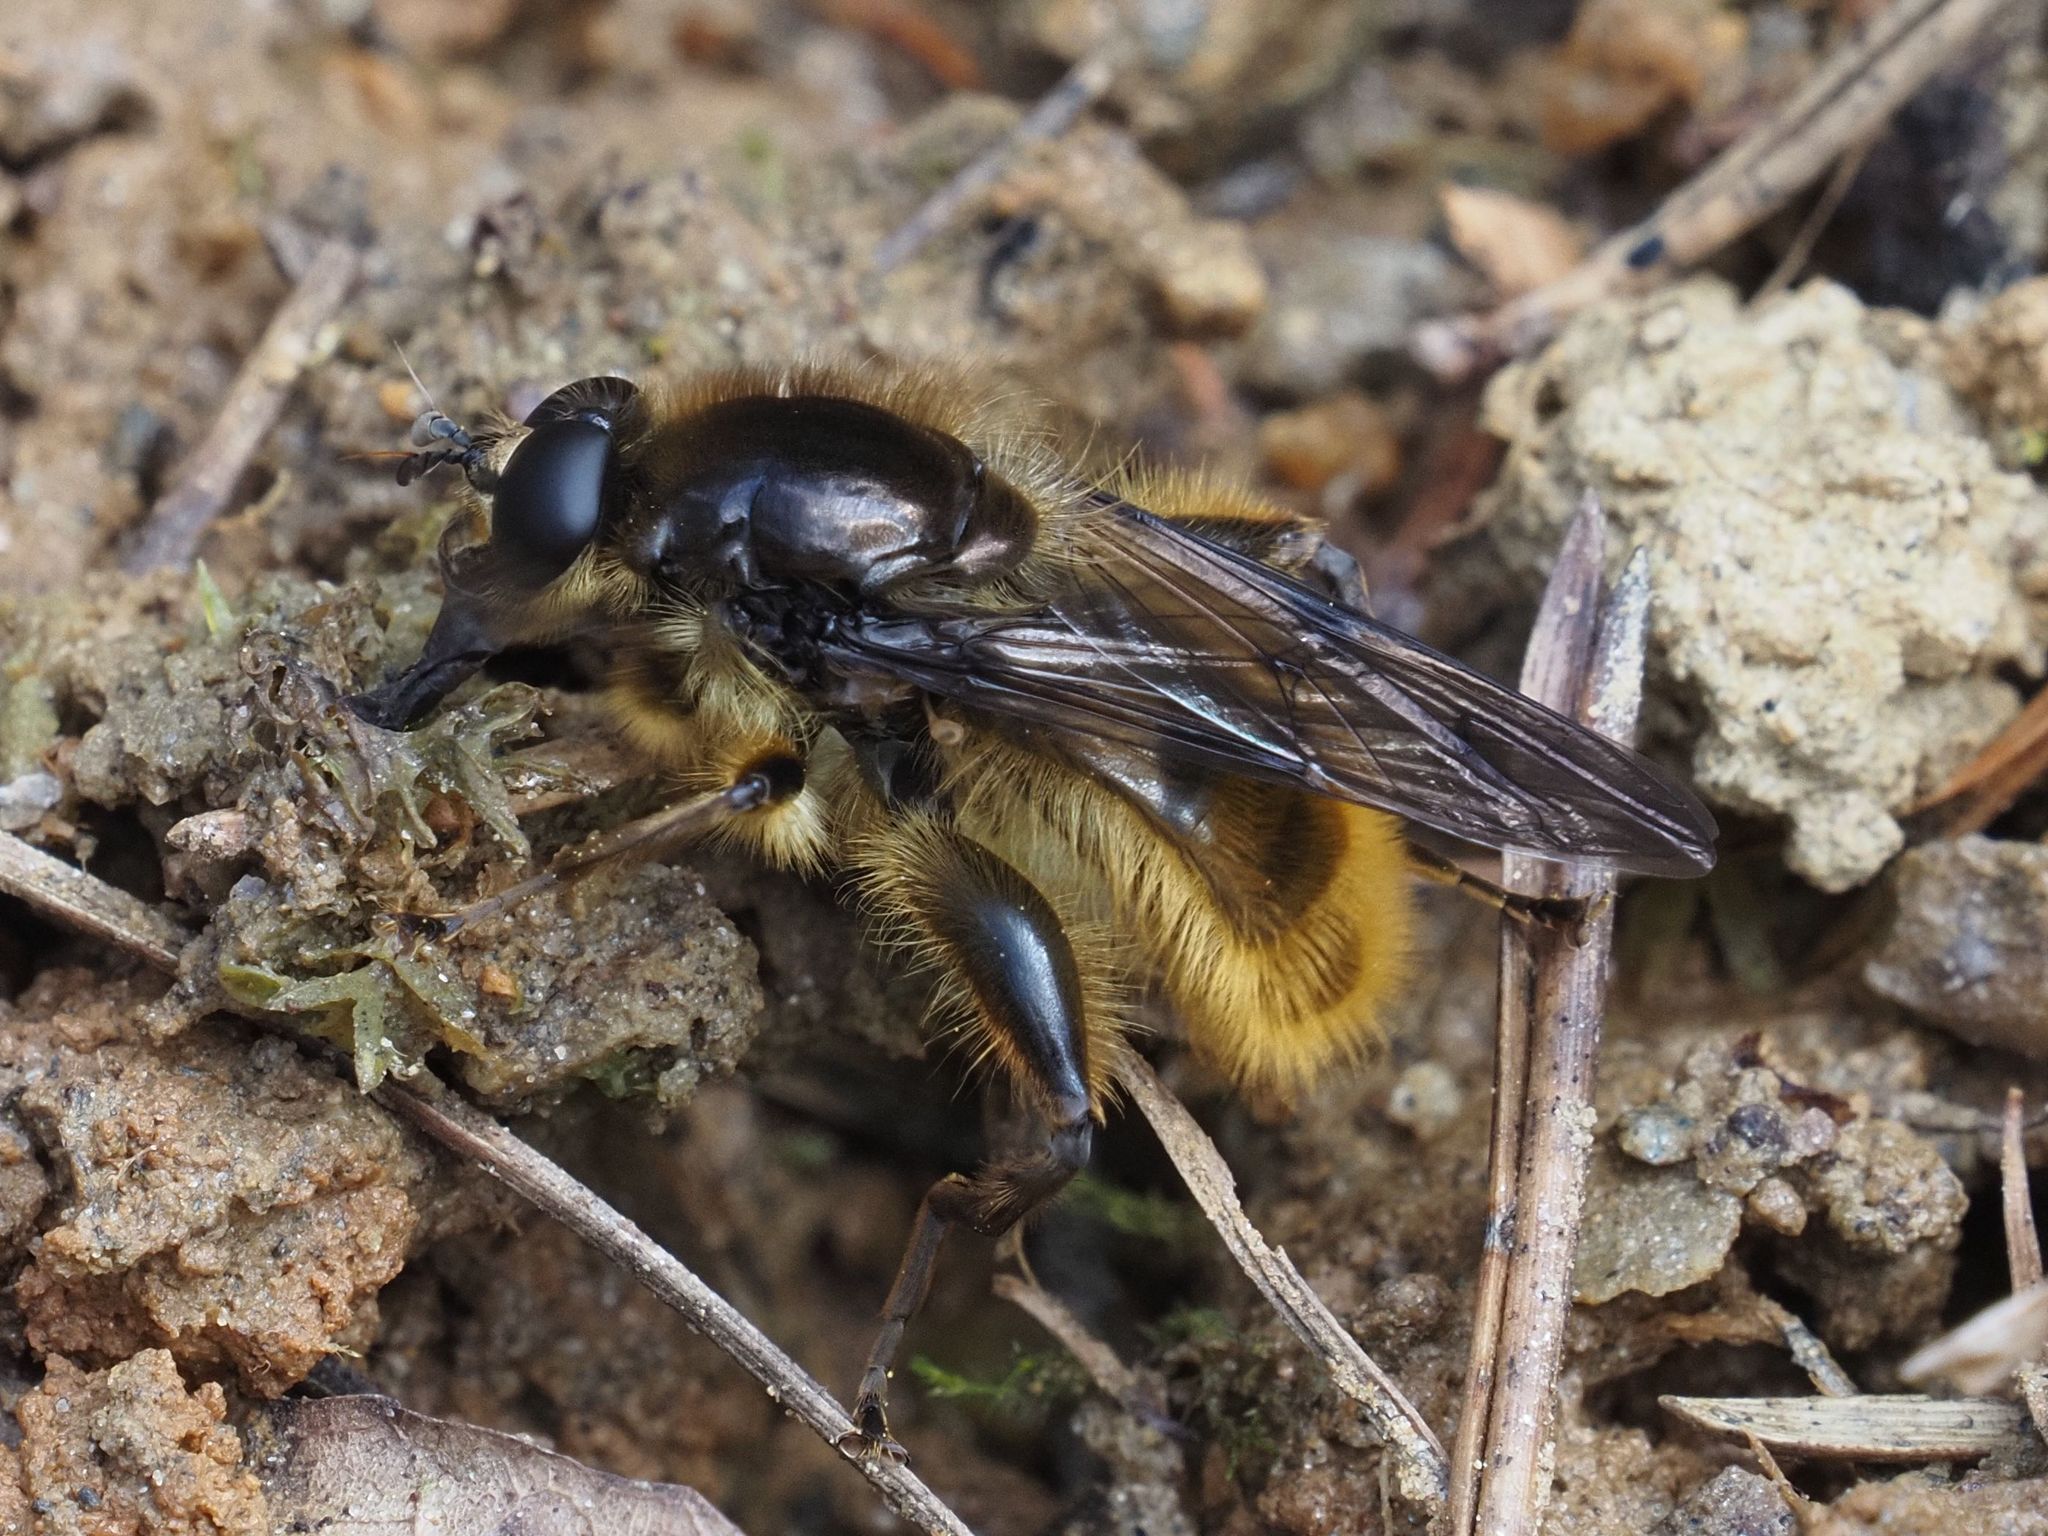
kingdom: Animalia
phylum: Arthropoda
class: Insecta
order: Diptera
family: Syrphidae
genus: Brachypalpus
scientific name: Brachypalpus chrysites
